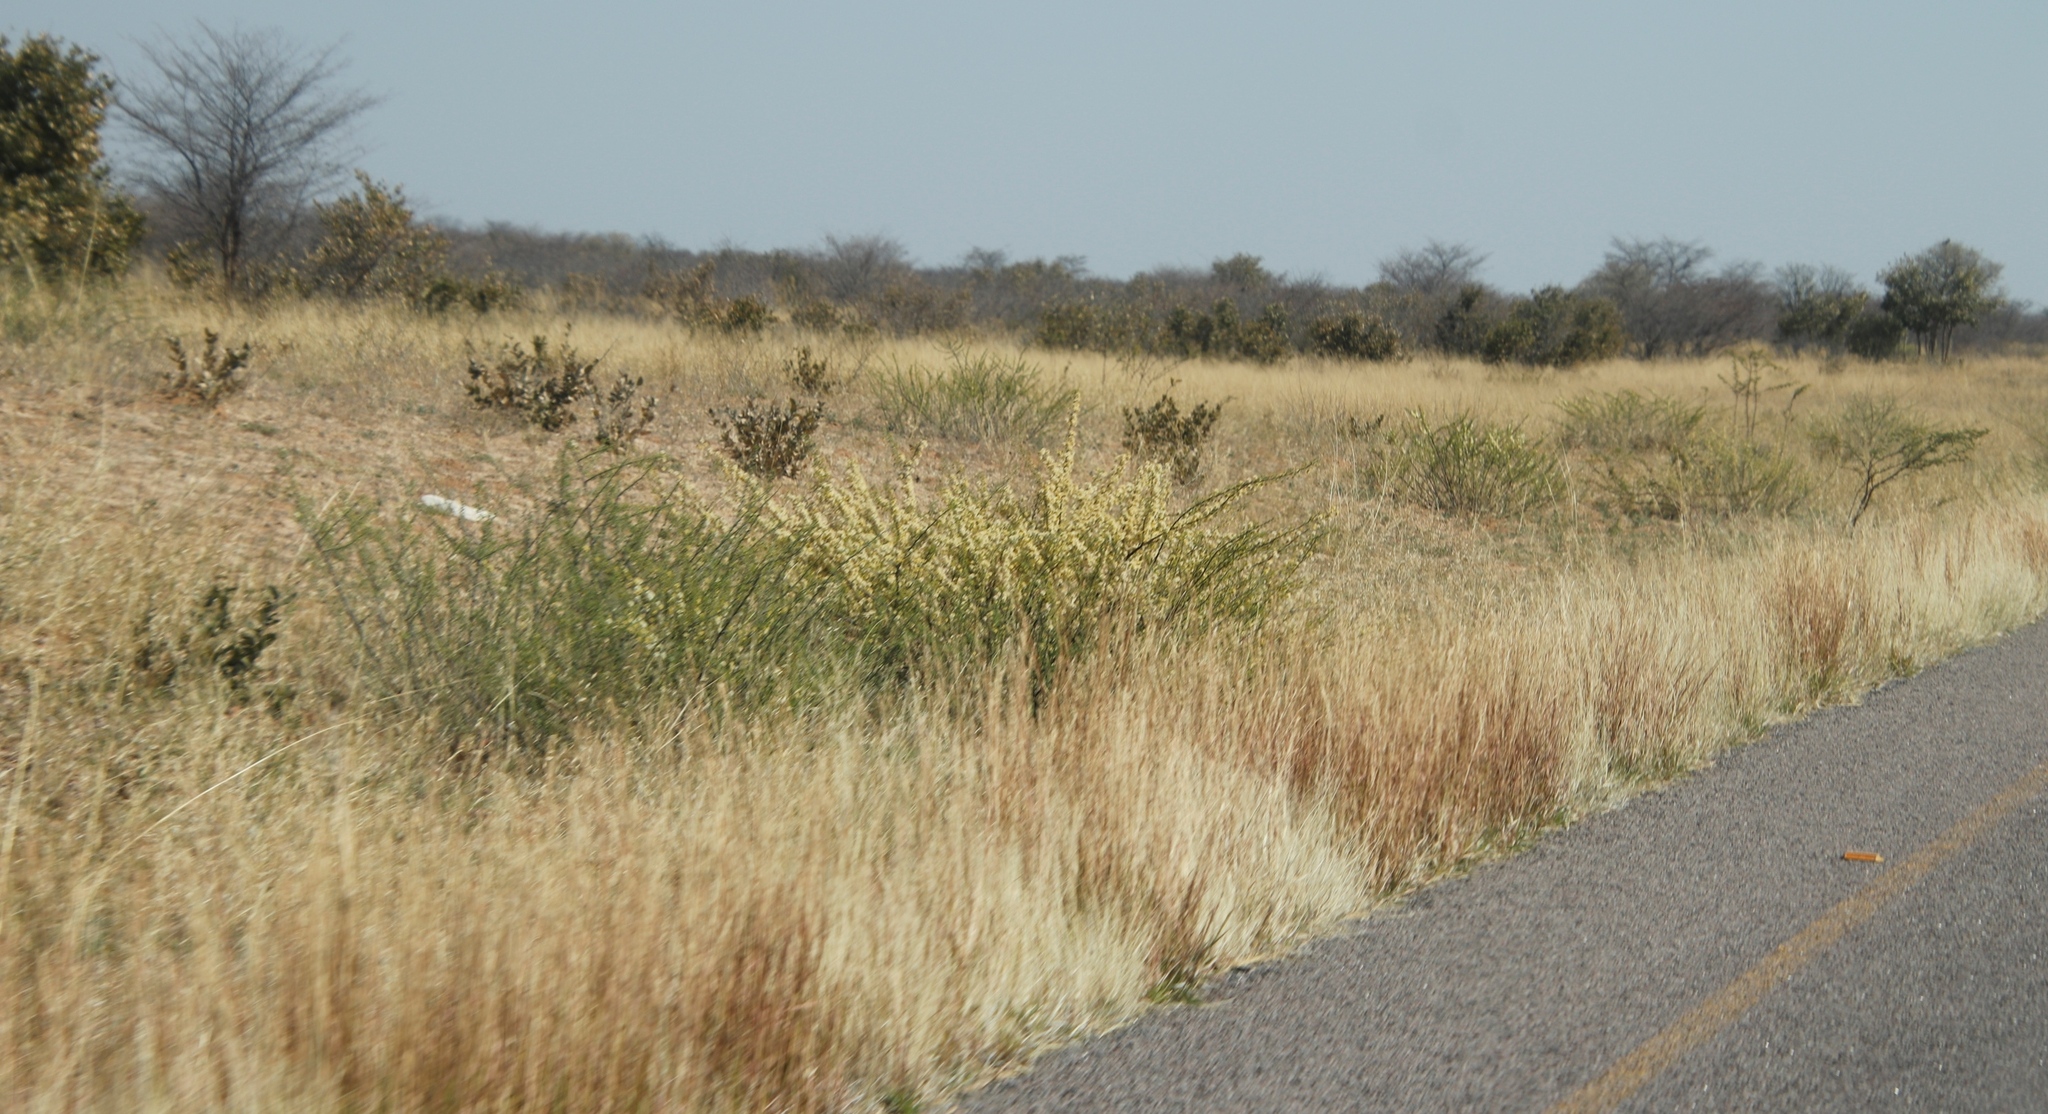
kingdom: Plantae
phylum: Tracheophyta
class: Magnoliopsida
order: Fabales
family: Fabaceae
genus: Vachellia
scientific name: Vachellia hebeclada
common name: Candle thorn
